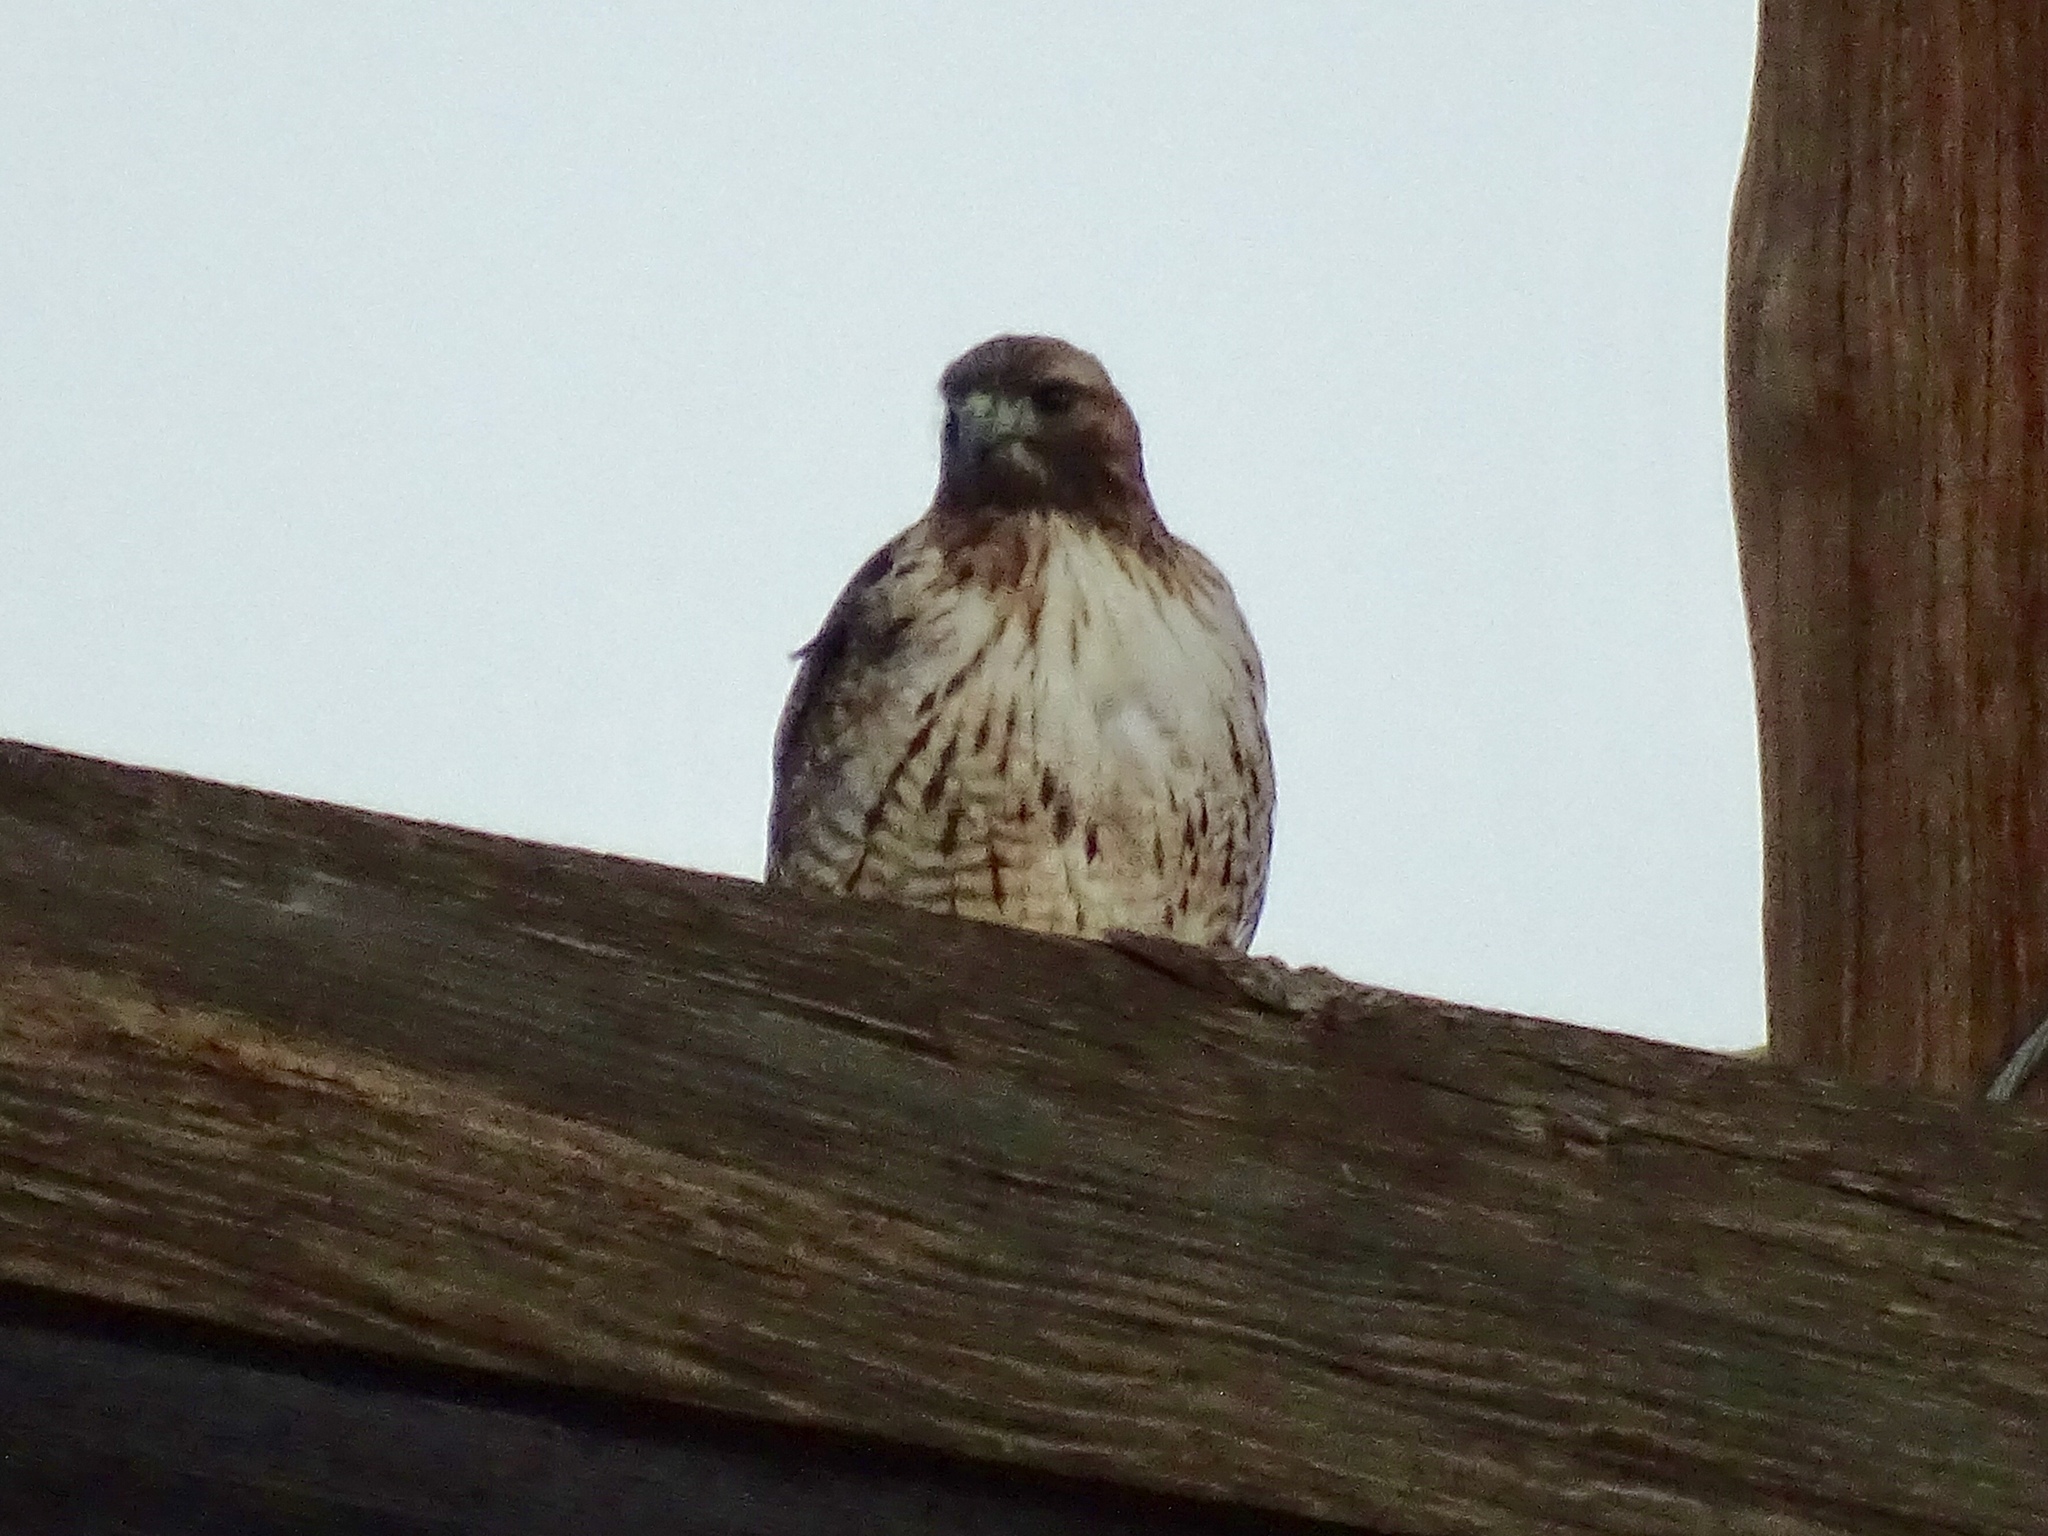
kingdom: Animalia
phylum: Chordata
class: Aves
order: Accipitriformes
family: Accipitridae
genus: Buteo
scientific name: Buteo jamaicensis
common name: Red-tailed hawk
